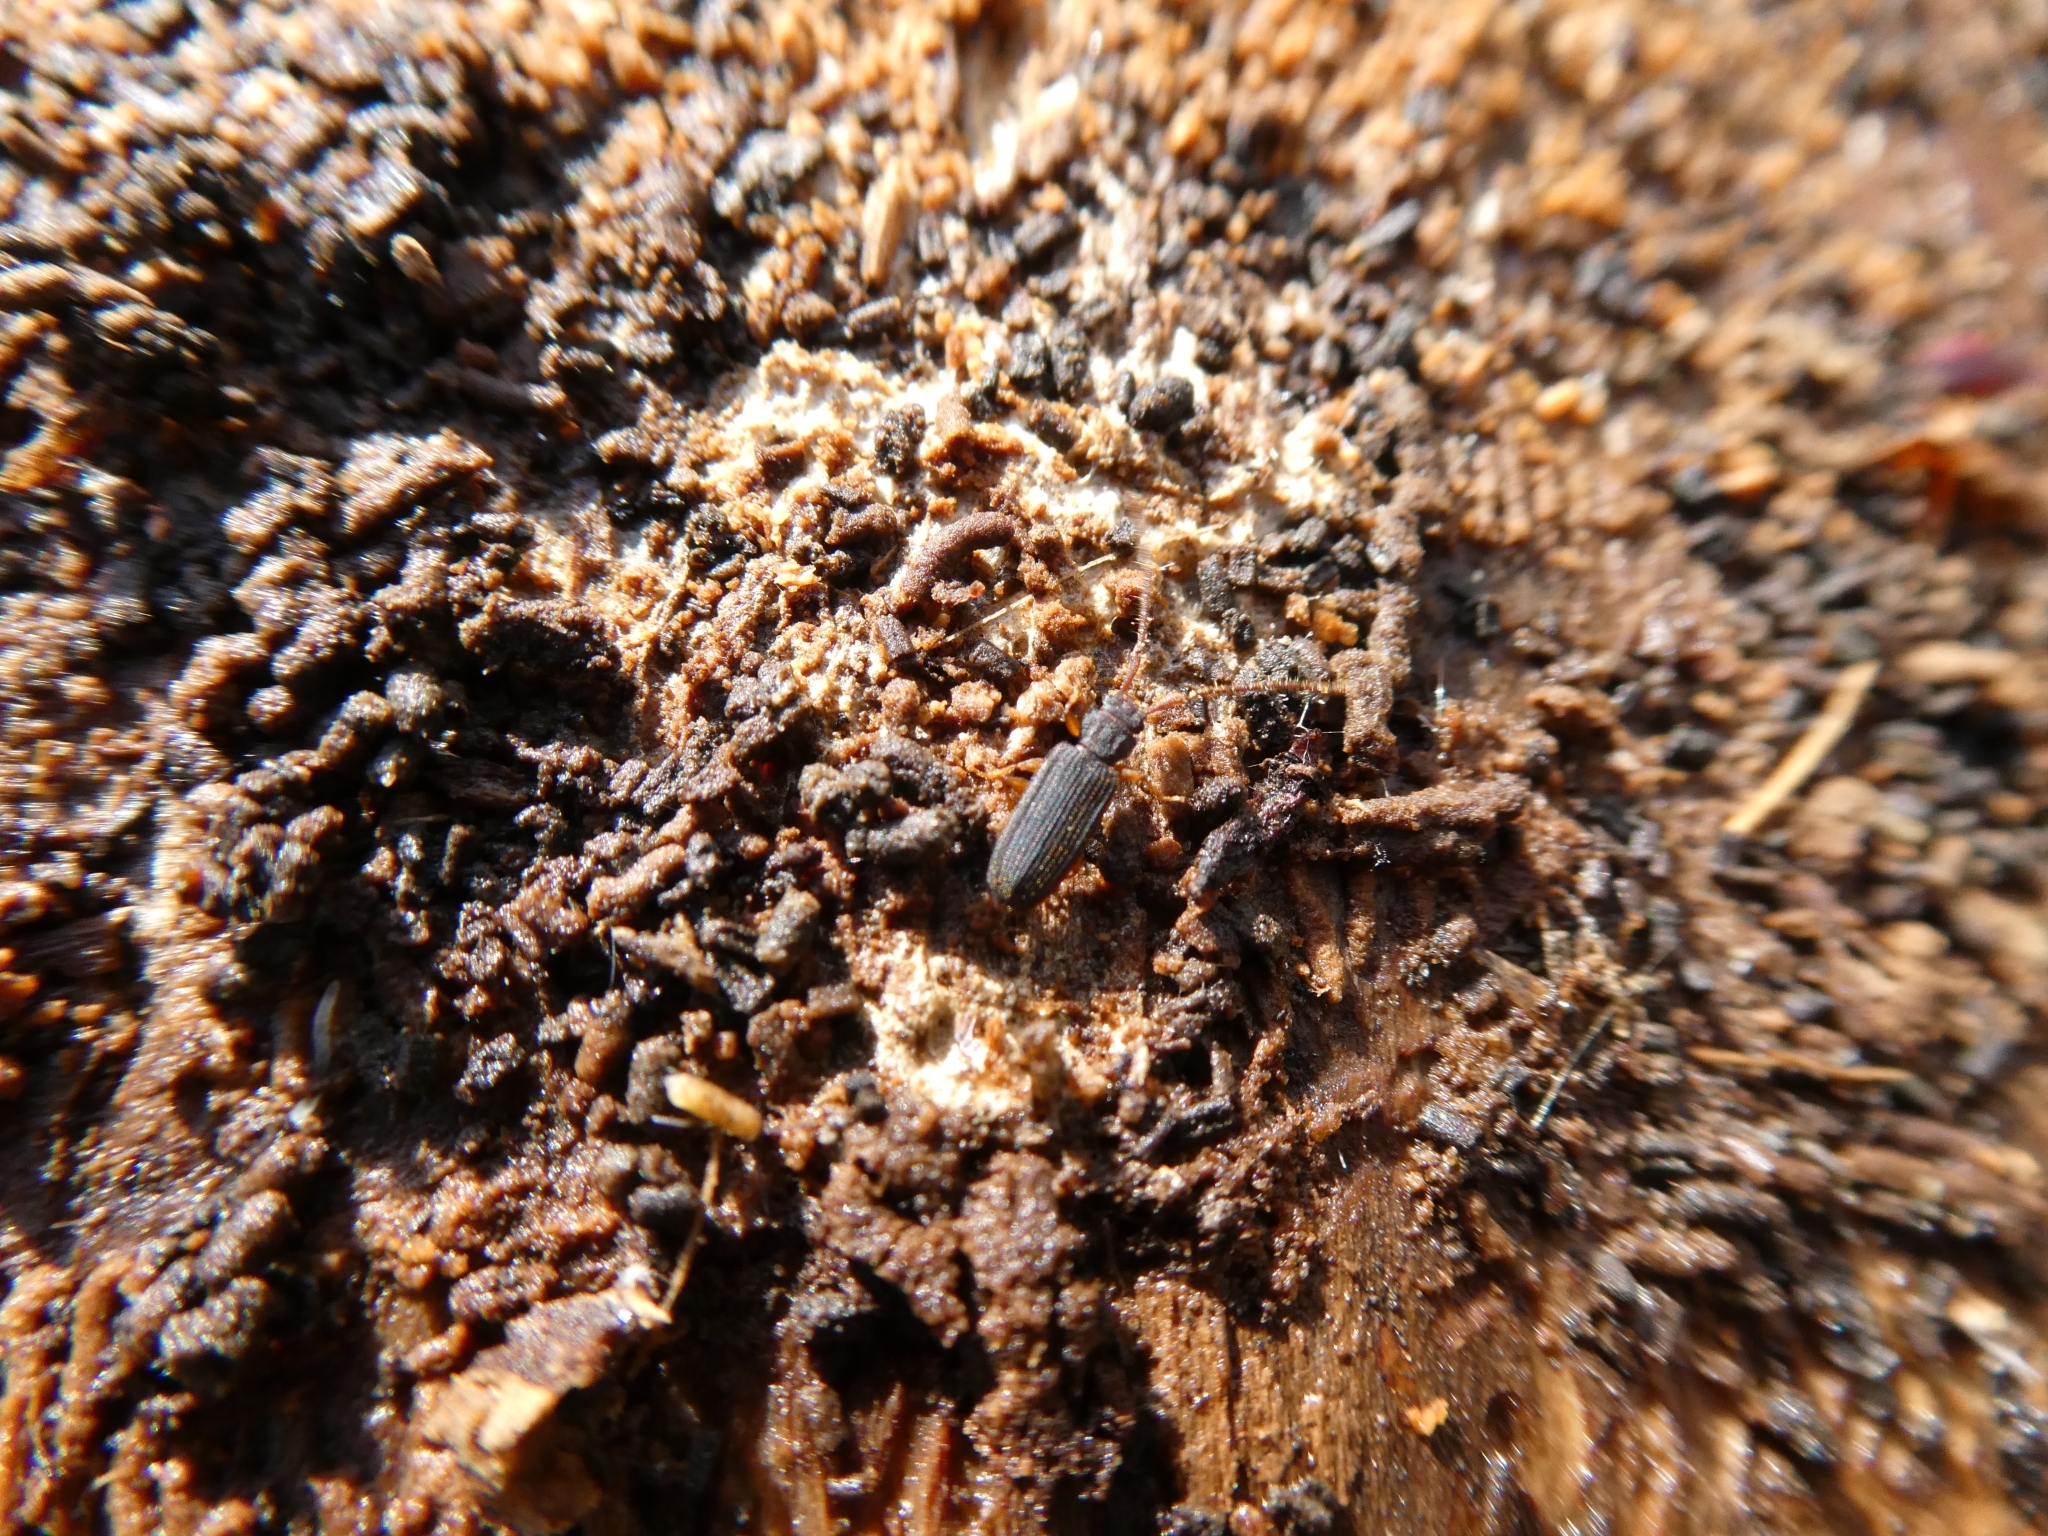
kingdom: Animalia
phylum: Arthropoda
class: Insecta
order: Coleoptera
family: Silvanidae
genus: Uleiota
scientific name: Uleiota planatus
